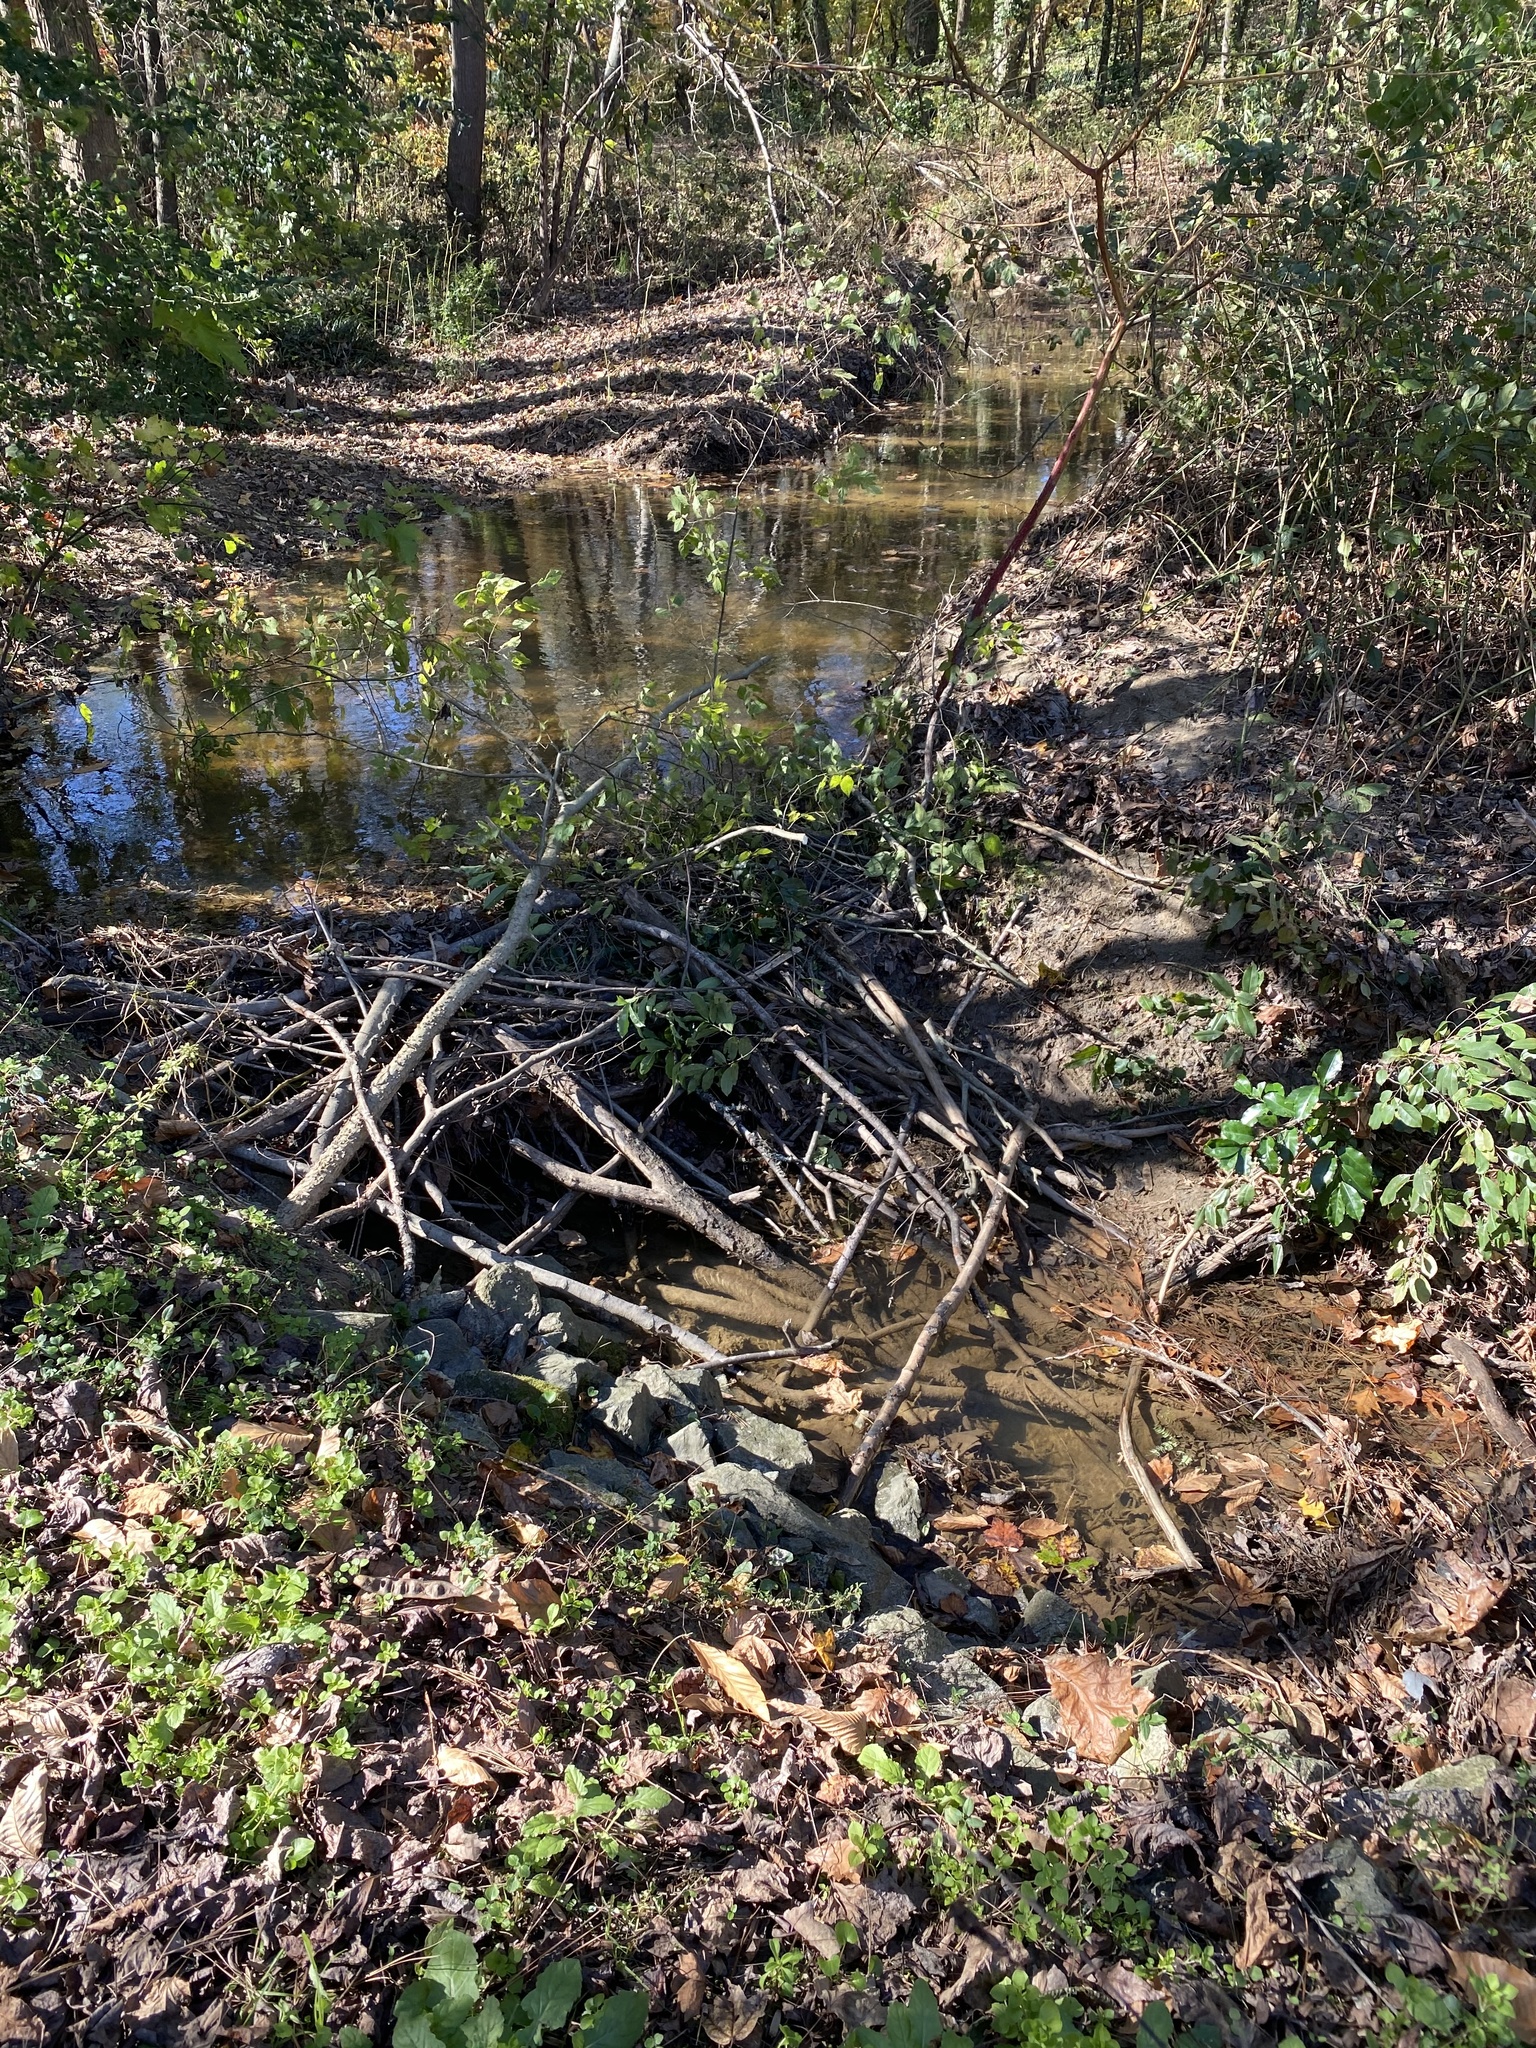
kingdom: Animalia
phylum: Chordata
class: Mammalia
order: Rodentia
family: Castoridae
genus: Castor
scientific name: Castor canadensis
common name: American beaver
